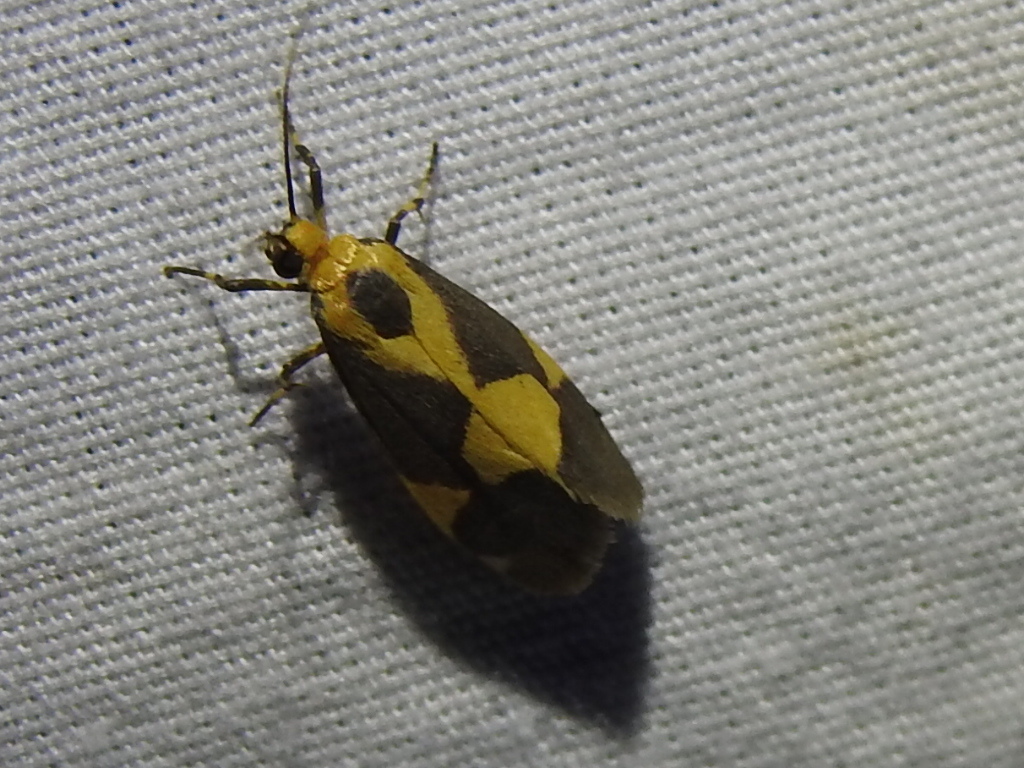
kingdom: Animalia
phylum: Arthropoda
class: Insecta
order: Lepidoptera
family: Erebidae
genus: Cisthene
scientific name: Cisthene unifascia
